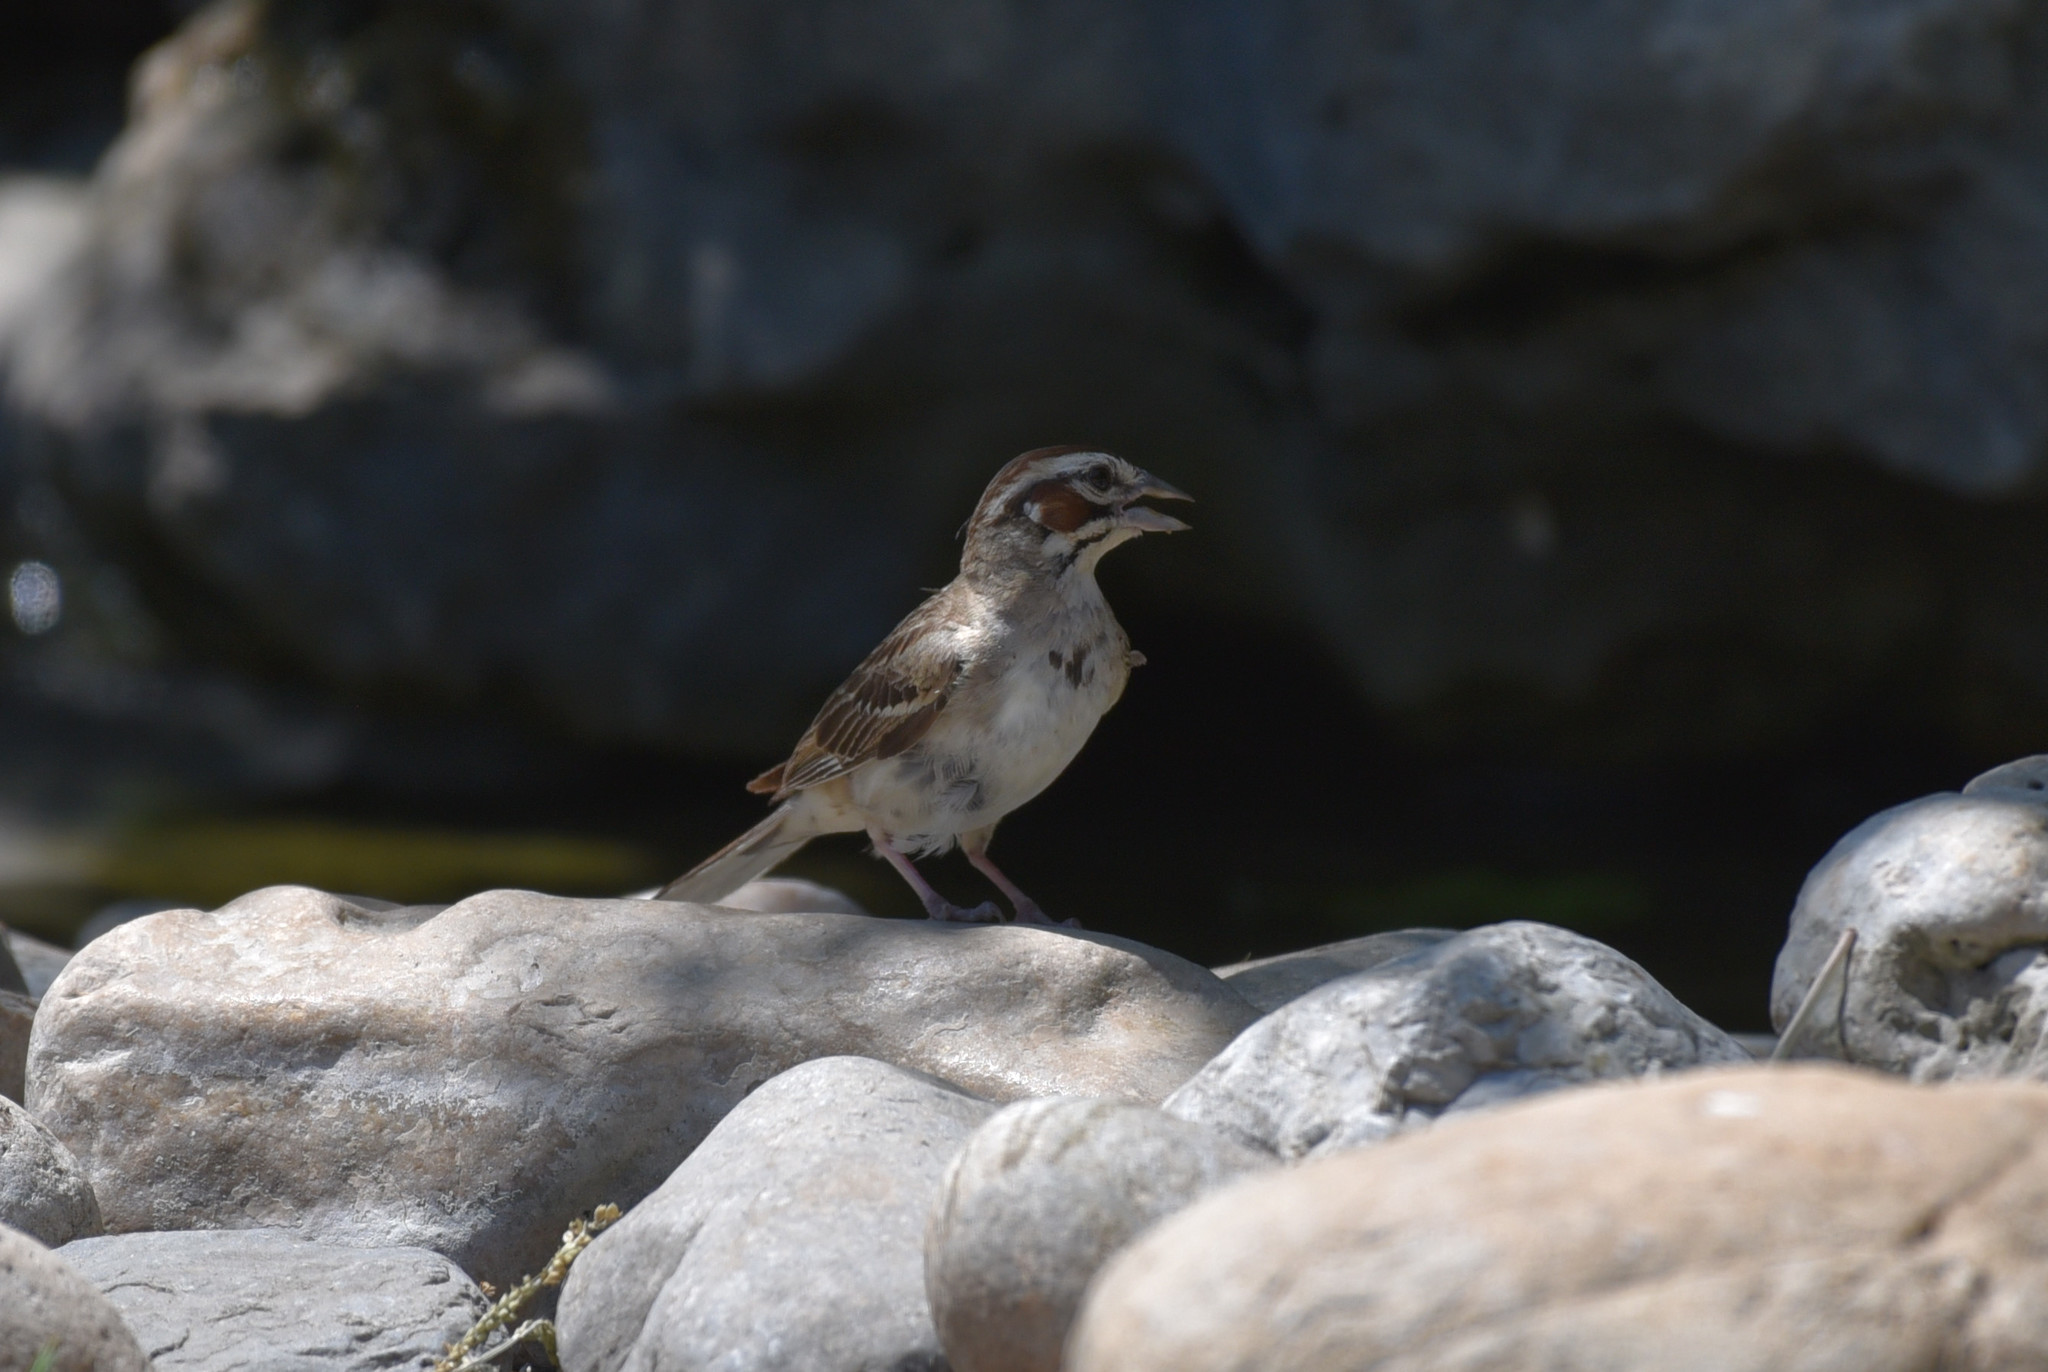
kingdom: Animalia
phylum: Chordata
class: Aves
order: Passeriformes
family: Passerellidae
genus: Chondestes
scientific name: Chondestes grammacus
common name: Lark sparrow
